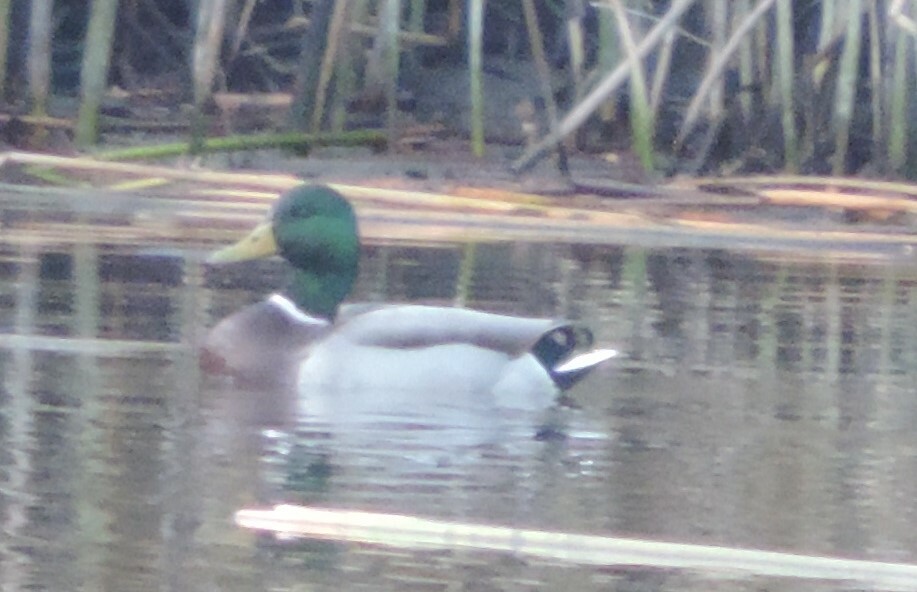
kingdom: Animalia
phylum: Chordata
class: Aves
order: Anseriformes
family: Anatidae
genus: Anas
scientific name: Anas platyrhynchos
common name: Mallard
